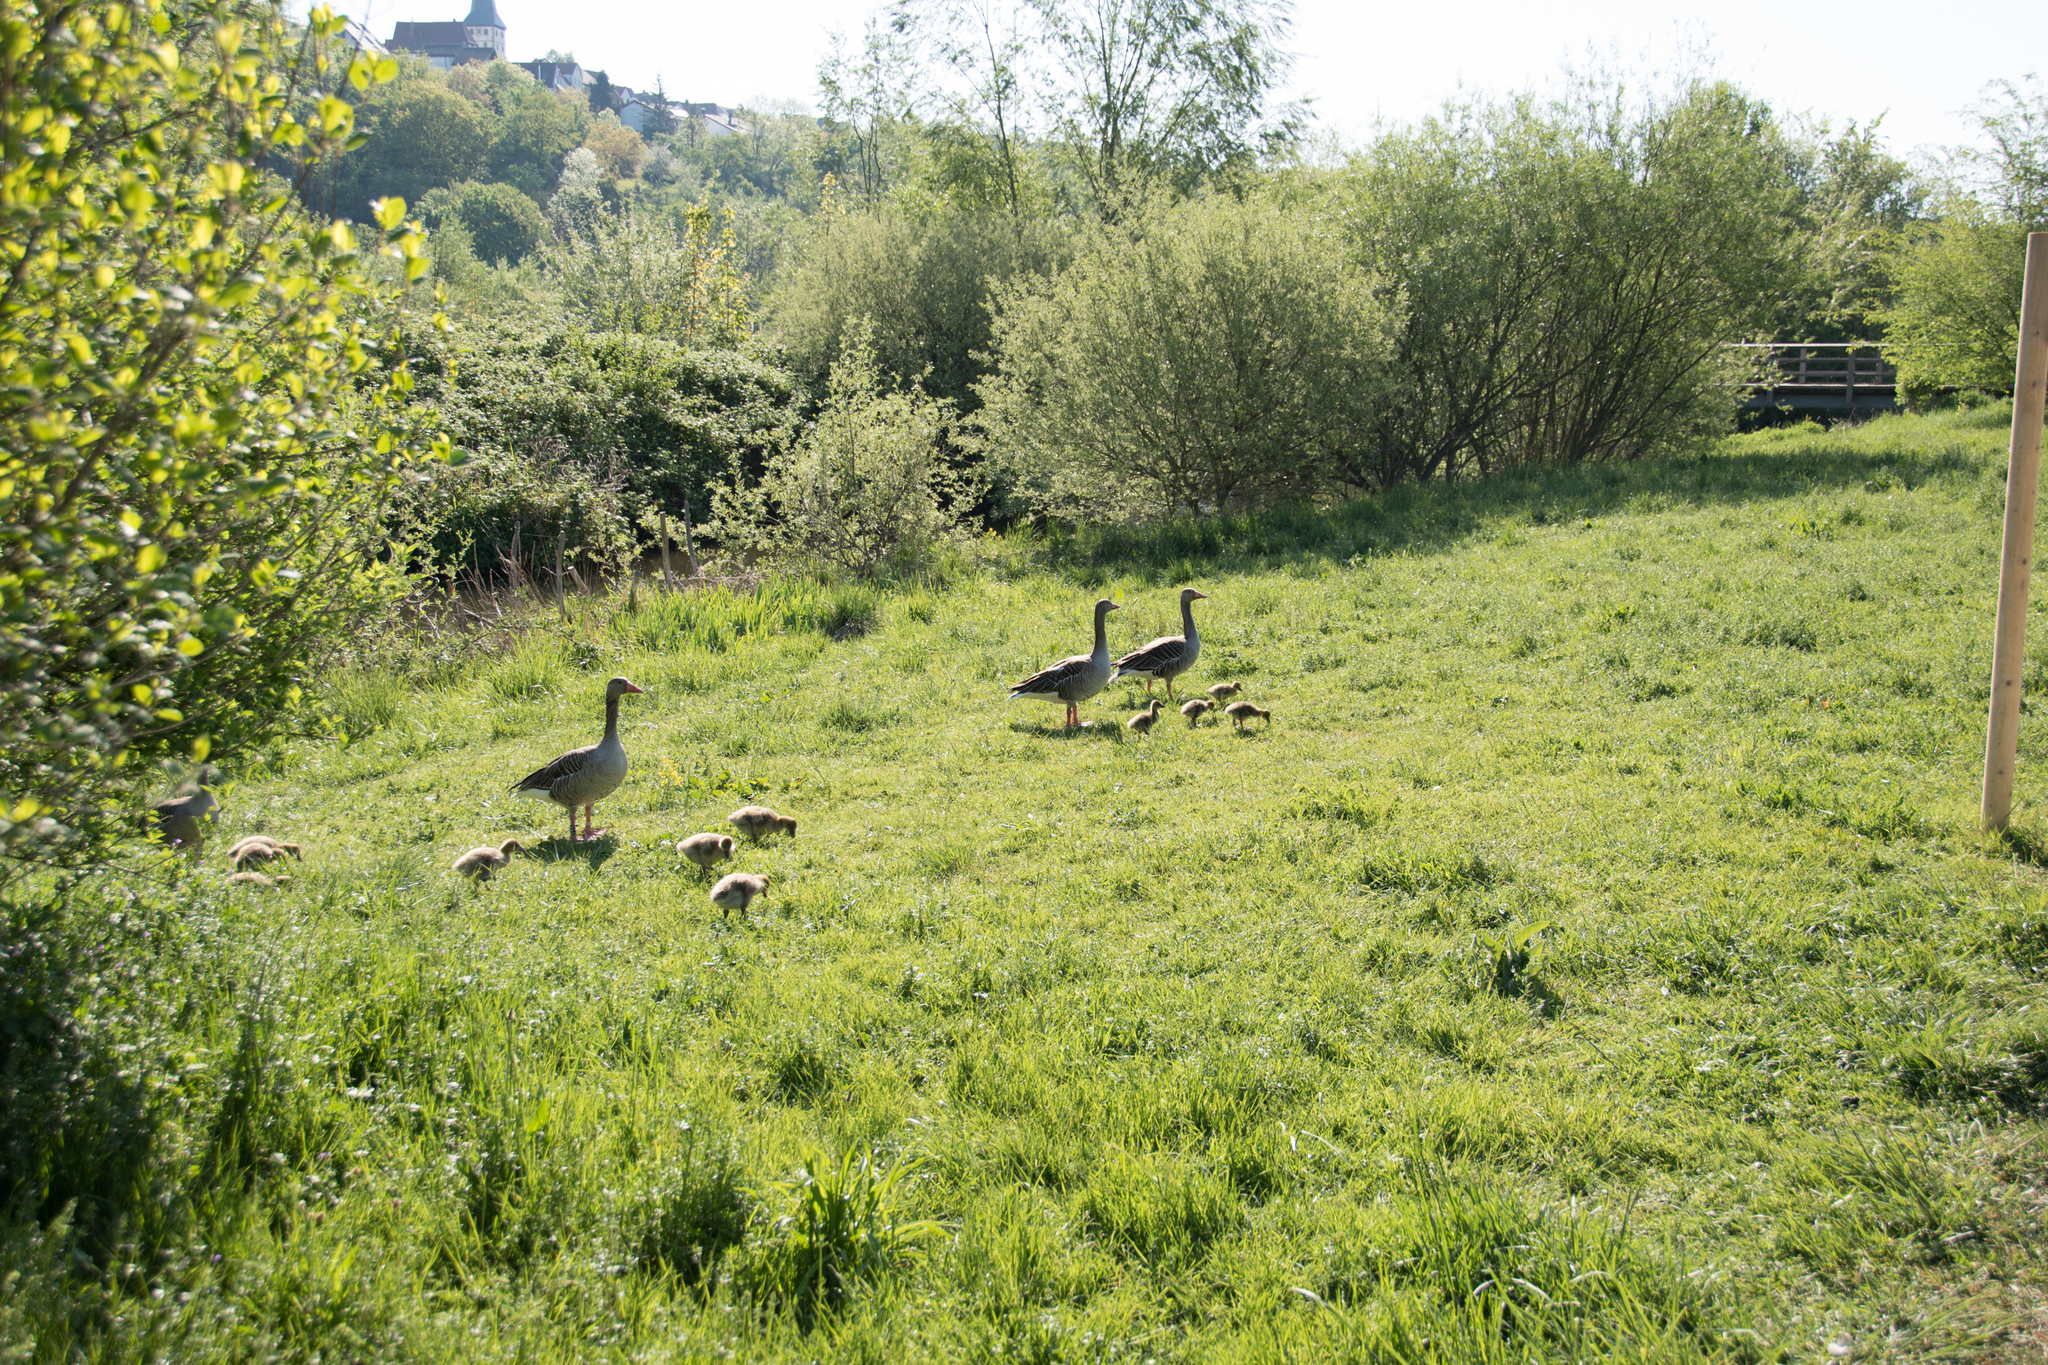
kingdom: Animalia
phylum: Chordata
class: Aves
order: Anseriformes
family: Anatidae
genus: Anser
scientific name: Anser anser
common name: Greylag goose
